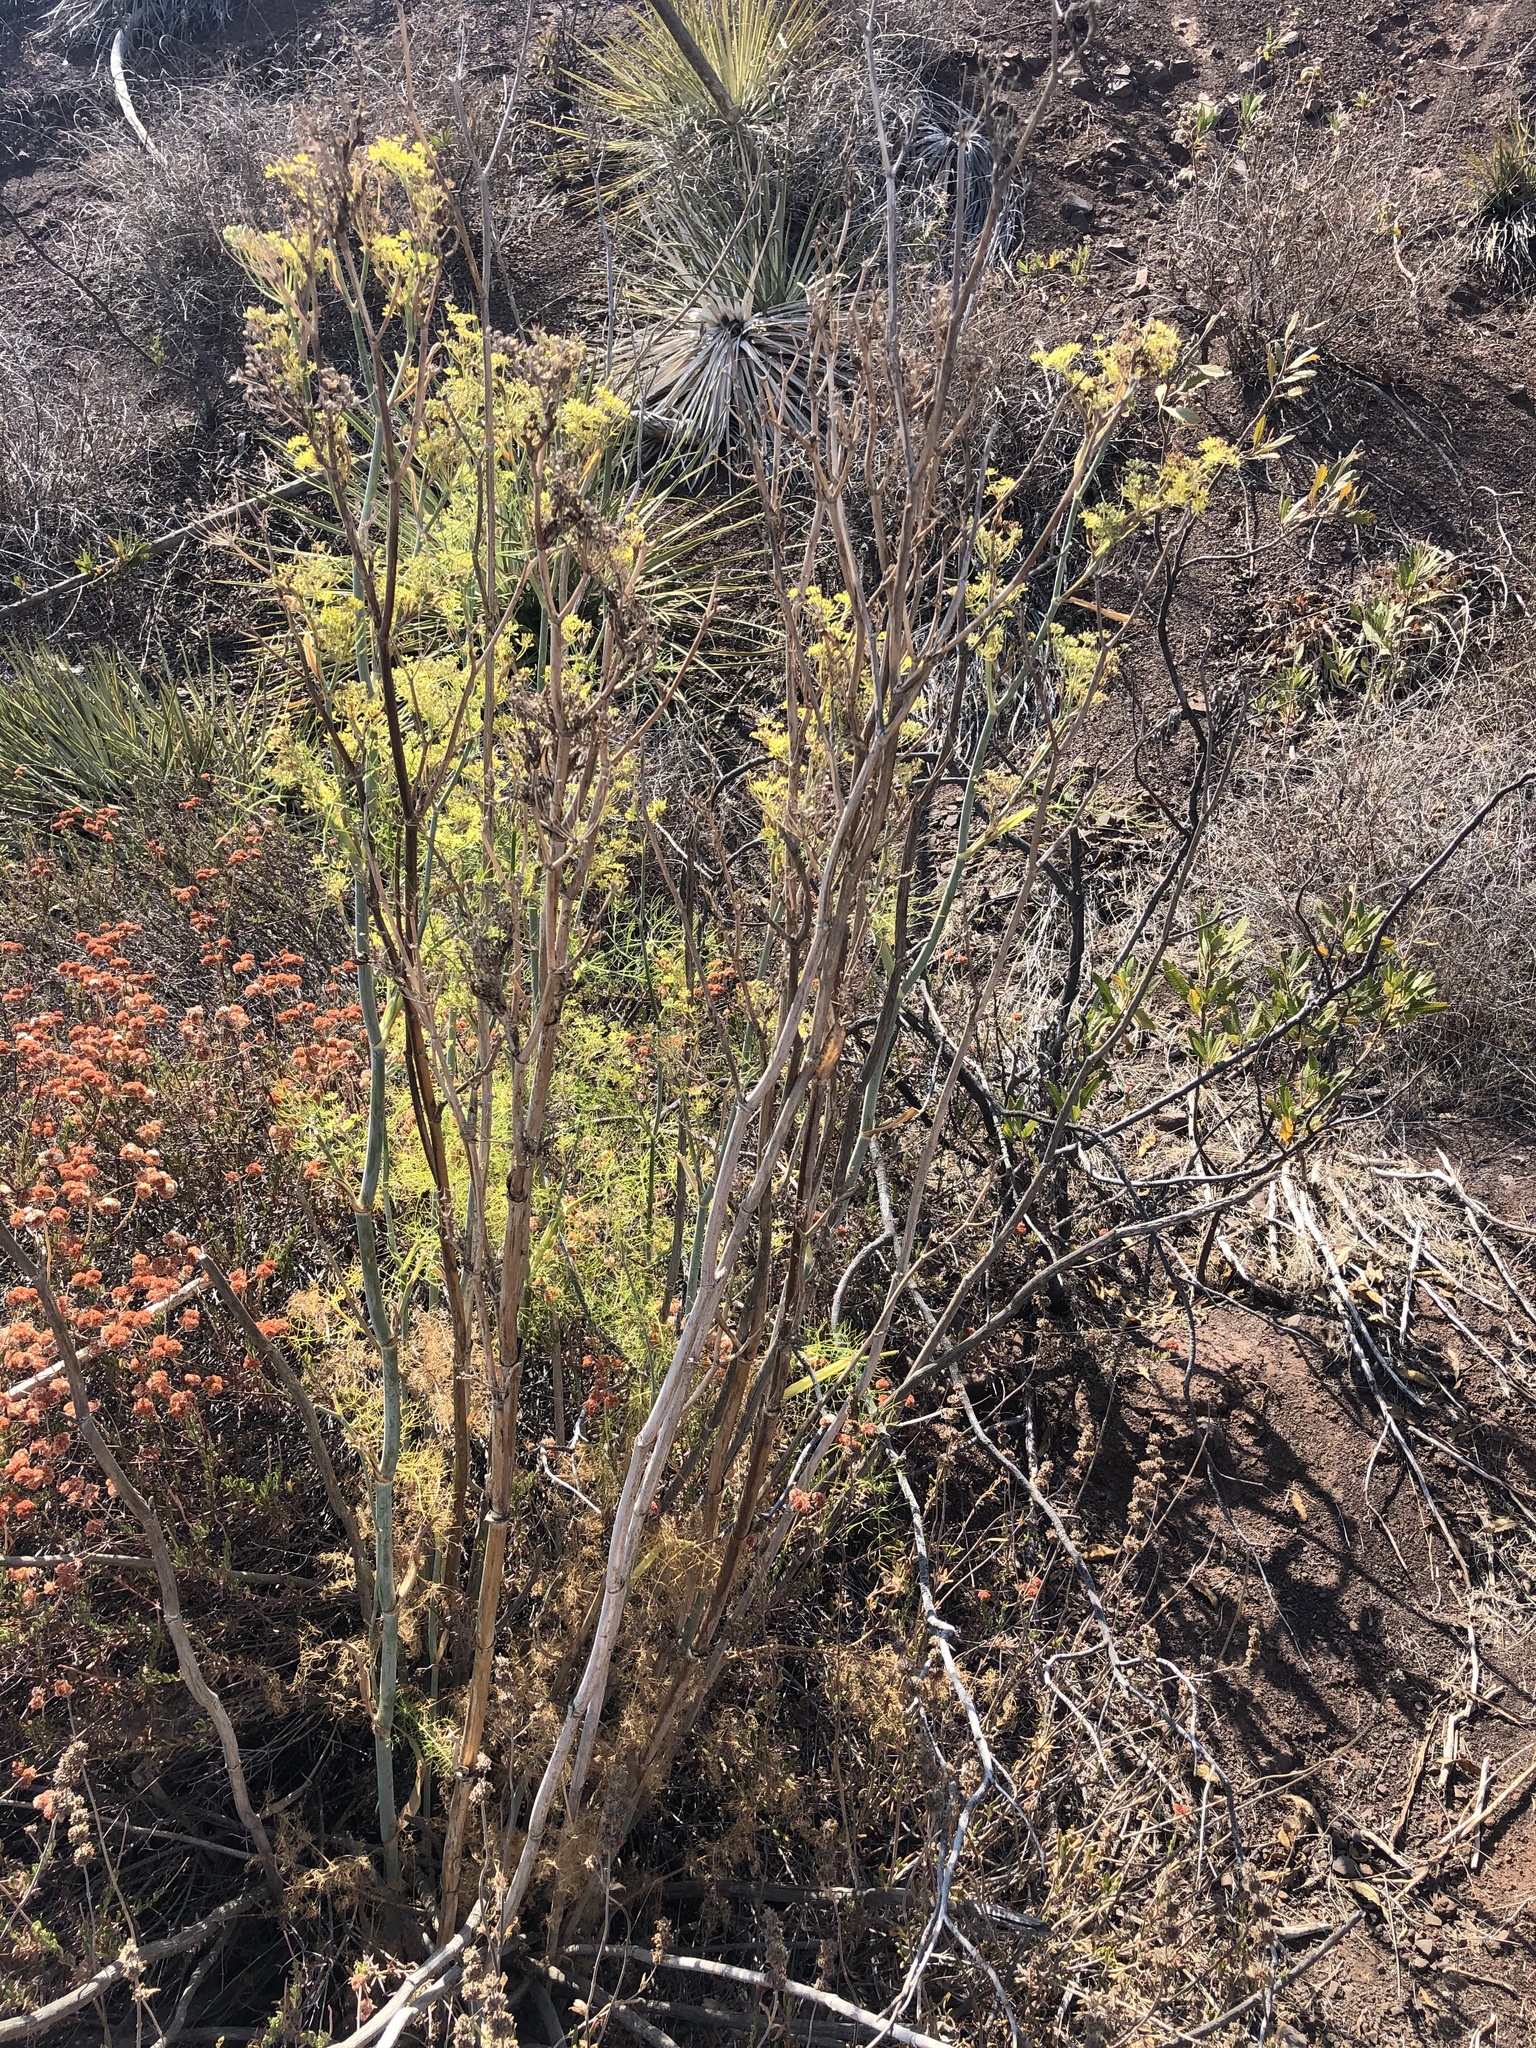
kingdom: Plantae
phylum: Tracheophyta
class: Magnoliopsida
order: Apiales
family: Apiaceae
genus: Foeniculum
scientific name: Foeniculum vulgare
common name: Fennel
